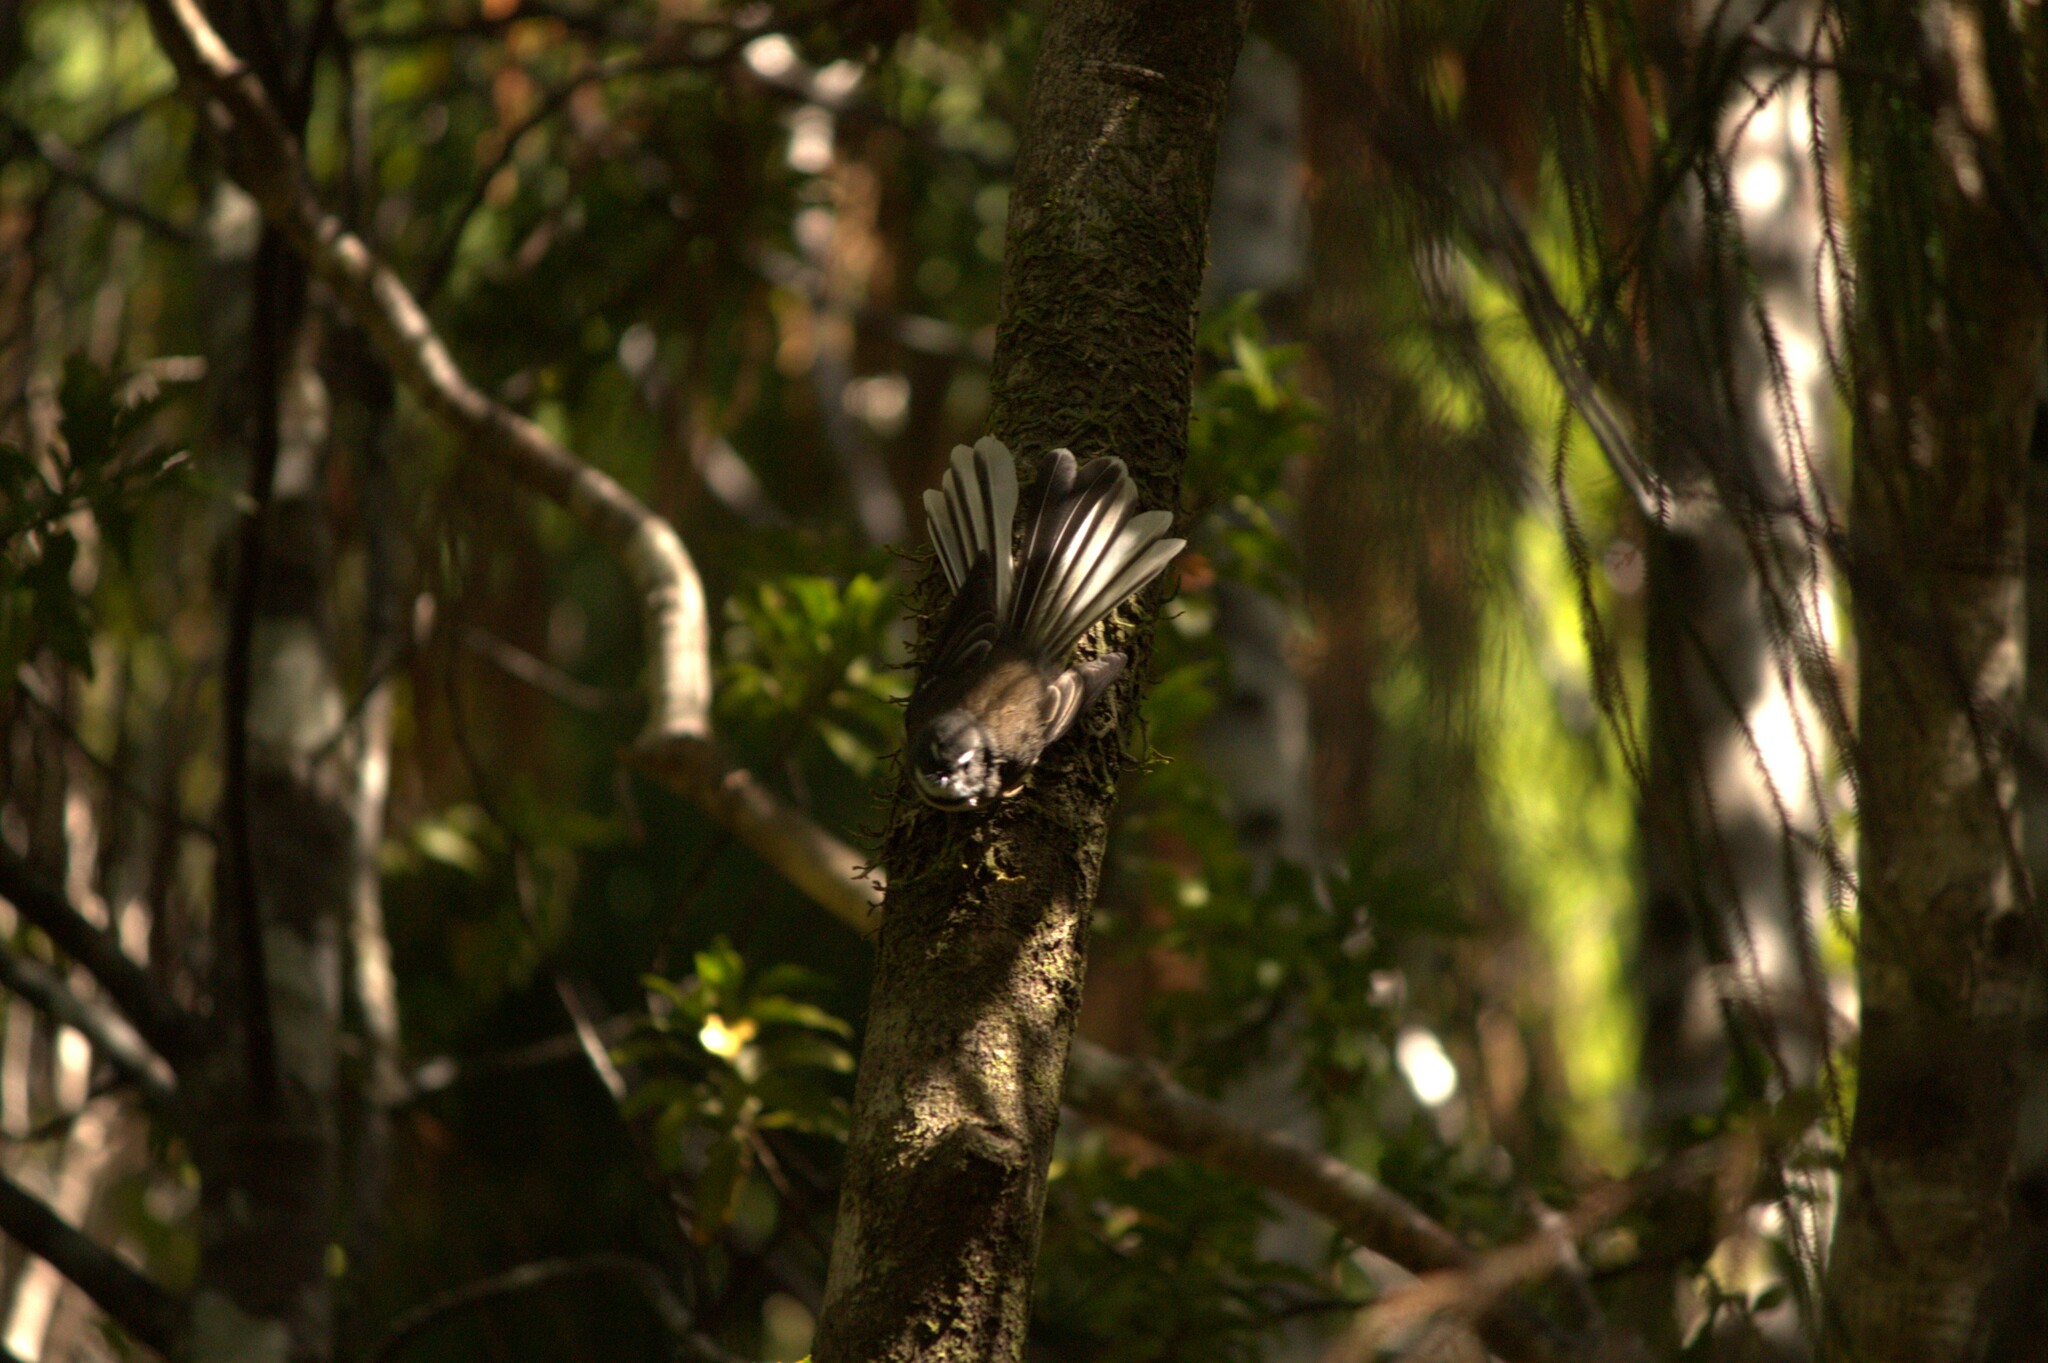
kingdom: Animalia
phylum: Chordata
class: Aves
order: Passeriformes
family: Rhipiduridae
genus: Rhipidura
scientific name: Rhipidura fuliginosa
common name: New zealand fantail
